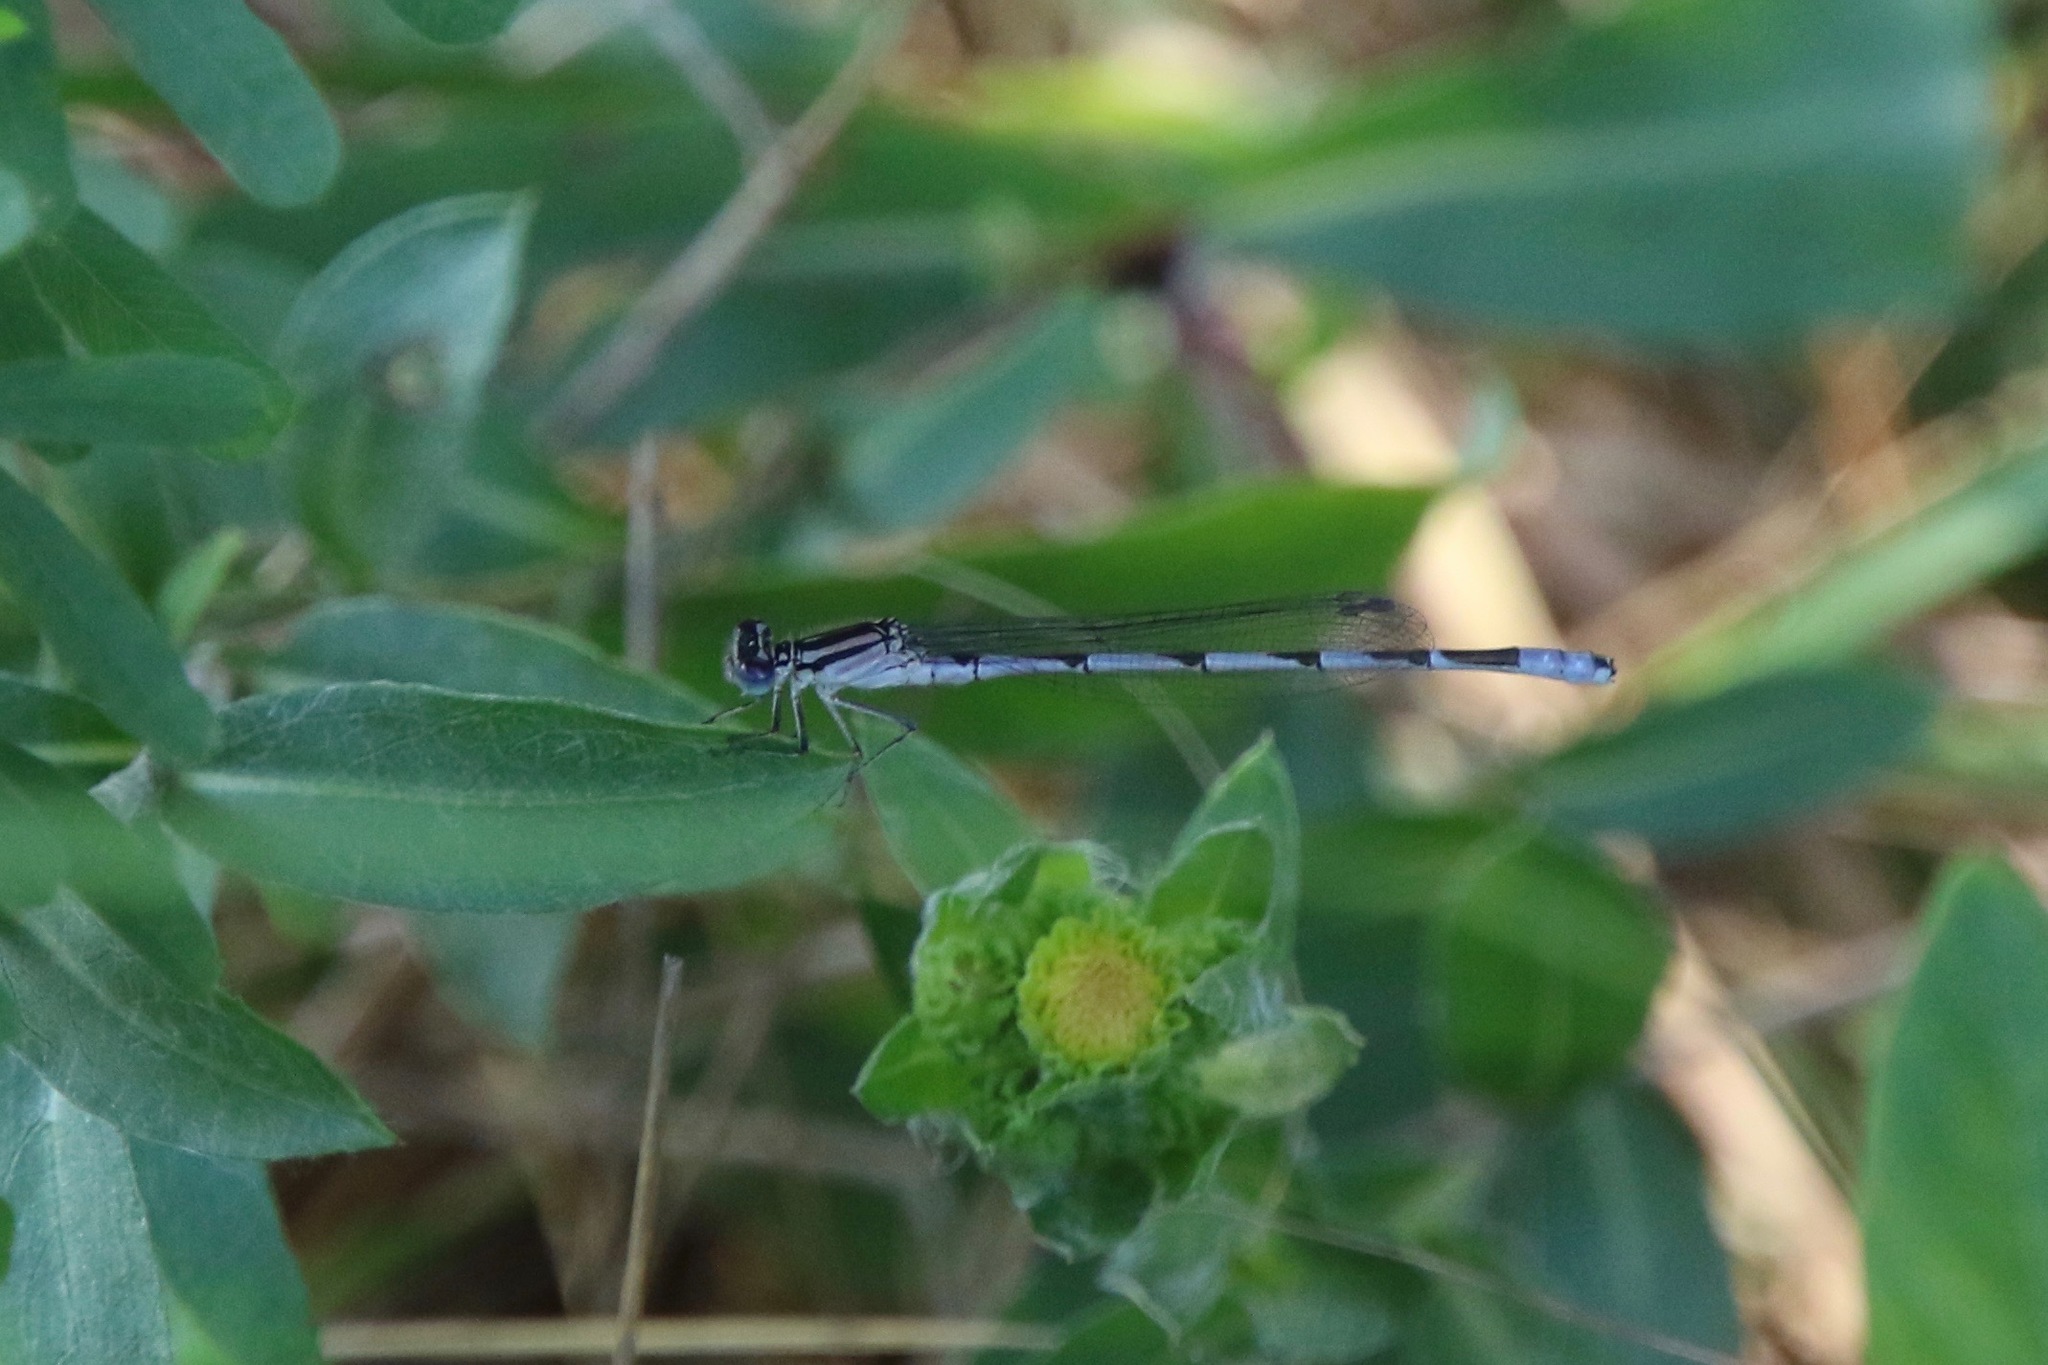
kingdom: Animalia
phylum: Arthropoda
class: Insecta
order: Odonata
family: Coenagrionidae
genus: Enallagma
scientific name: Enallagma durum
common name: Big bluet
